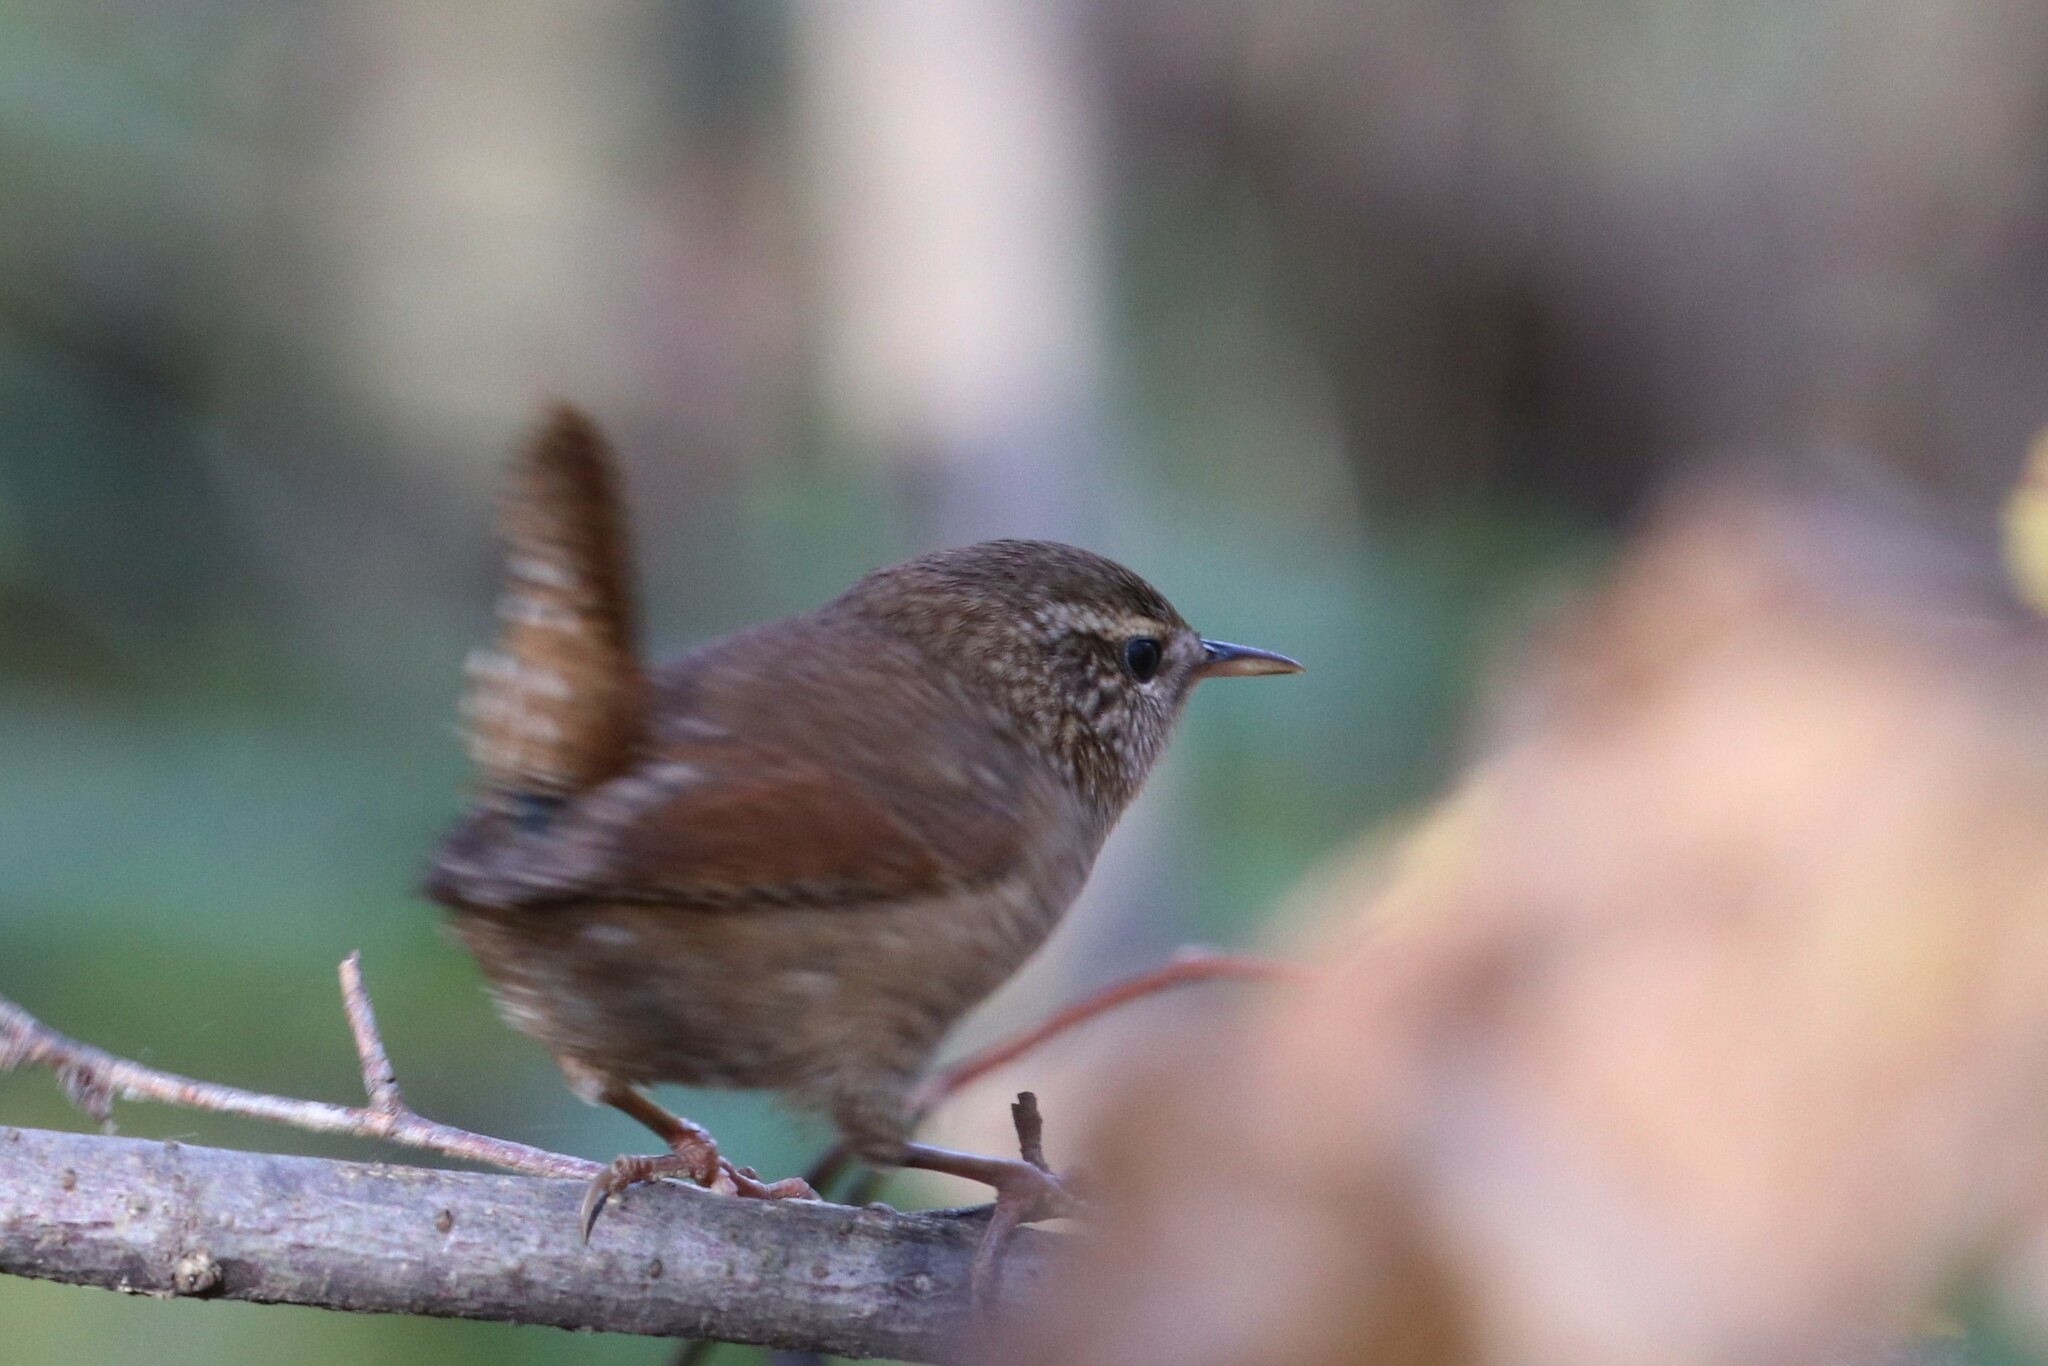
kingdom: Animalia
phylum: Chordata
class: Aves
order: Passeriformes
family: Troglodytidae
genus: Troglodytes
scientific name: Troglodytes troglodytes
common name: Eurasian wren
